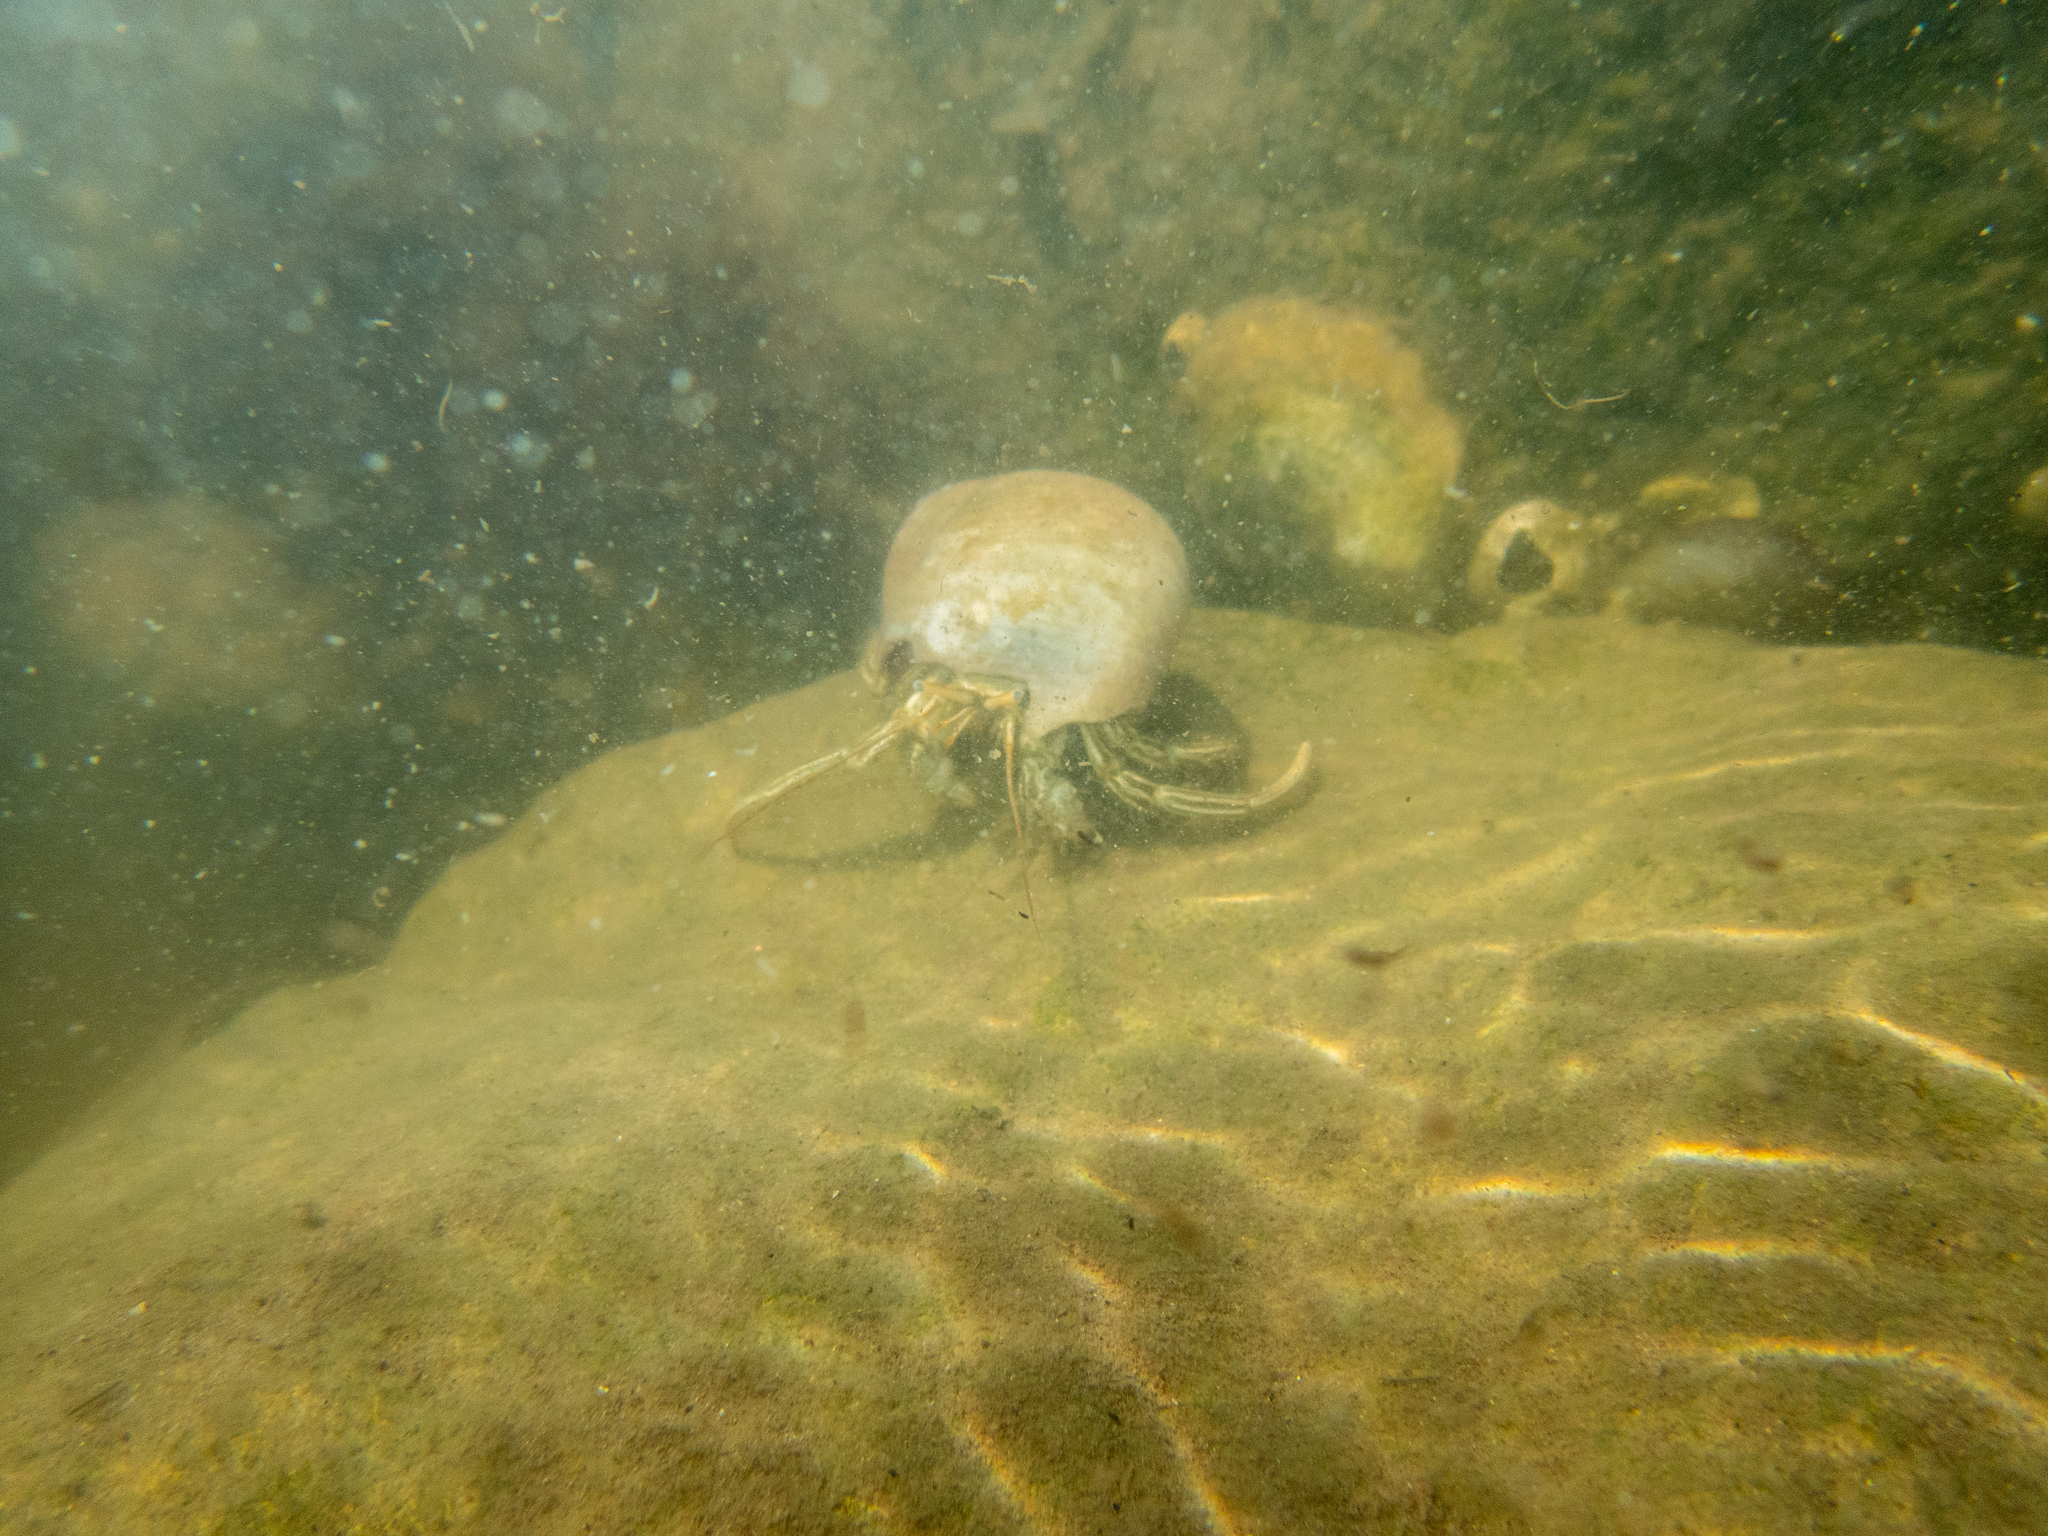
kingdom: Animalia
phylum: Arthropoda
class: Malacostraca
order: Decapoda
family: Diogenidae
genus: Clibanarius
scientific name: Clibanarius vittatus
